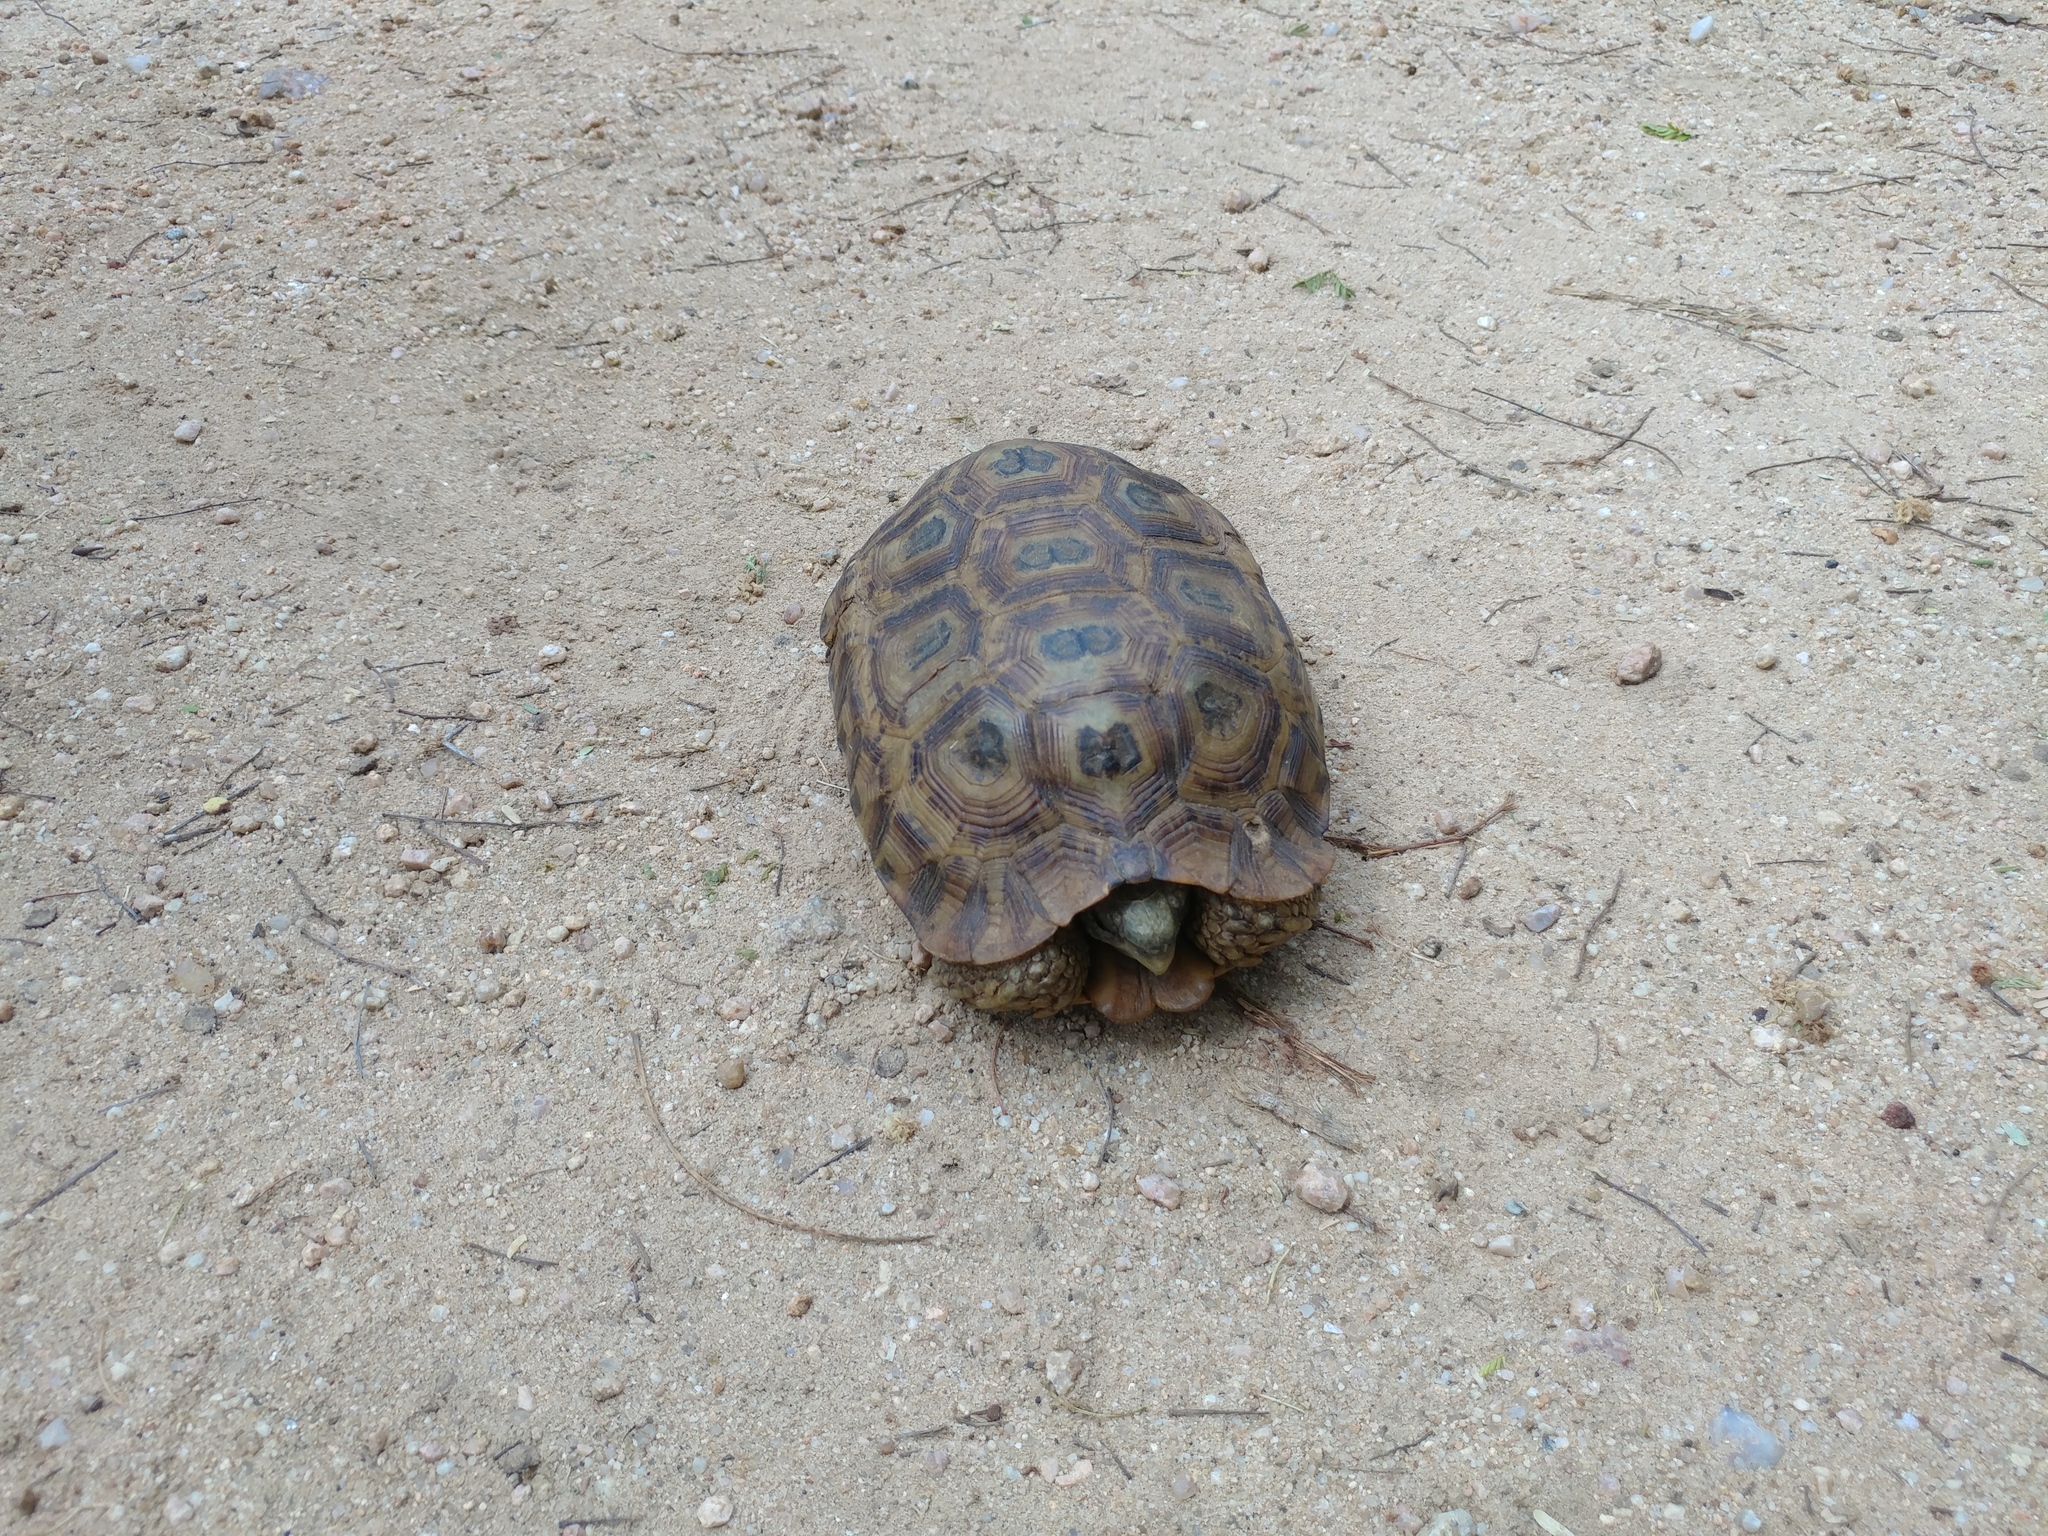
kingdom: Animalia
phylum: Chordata
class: Testudines
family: Testudinidae
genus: Kinixys
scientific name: Kinixys spekii
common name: Speke's hingeback tortoise
